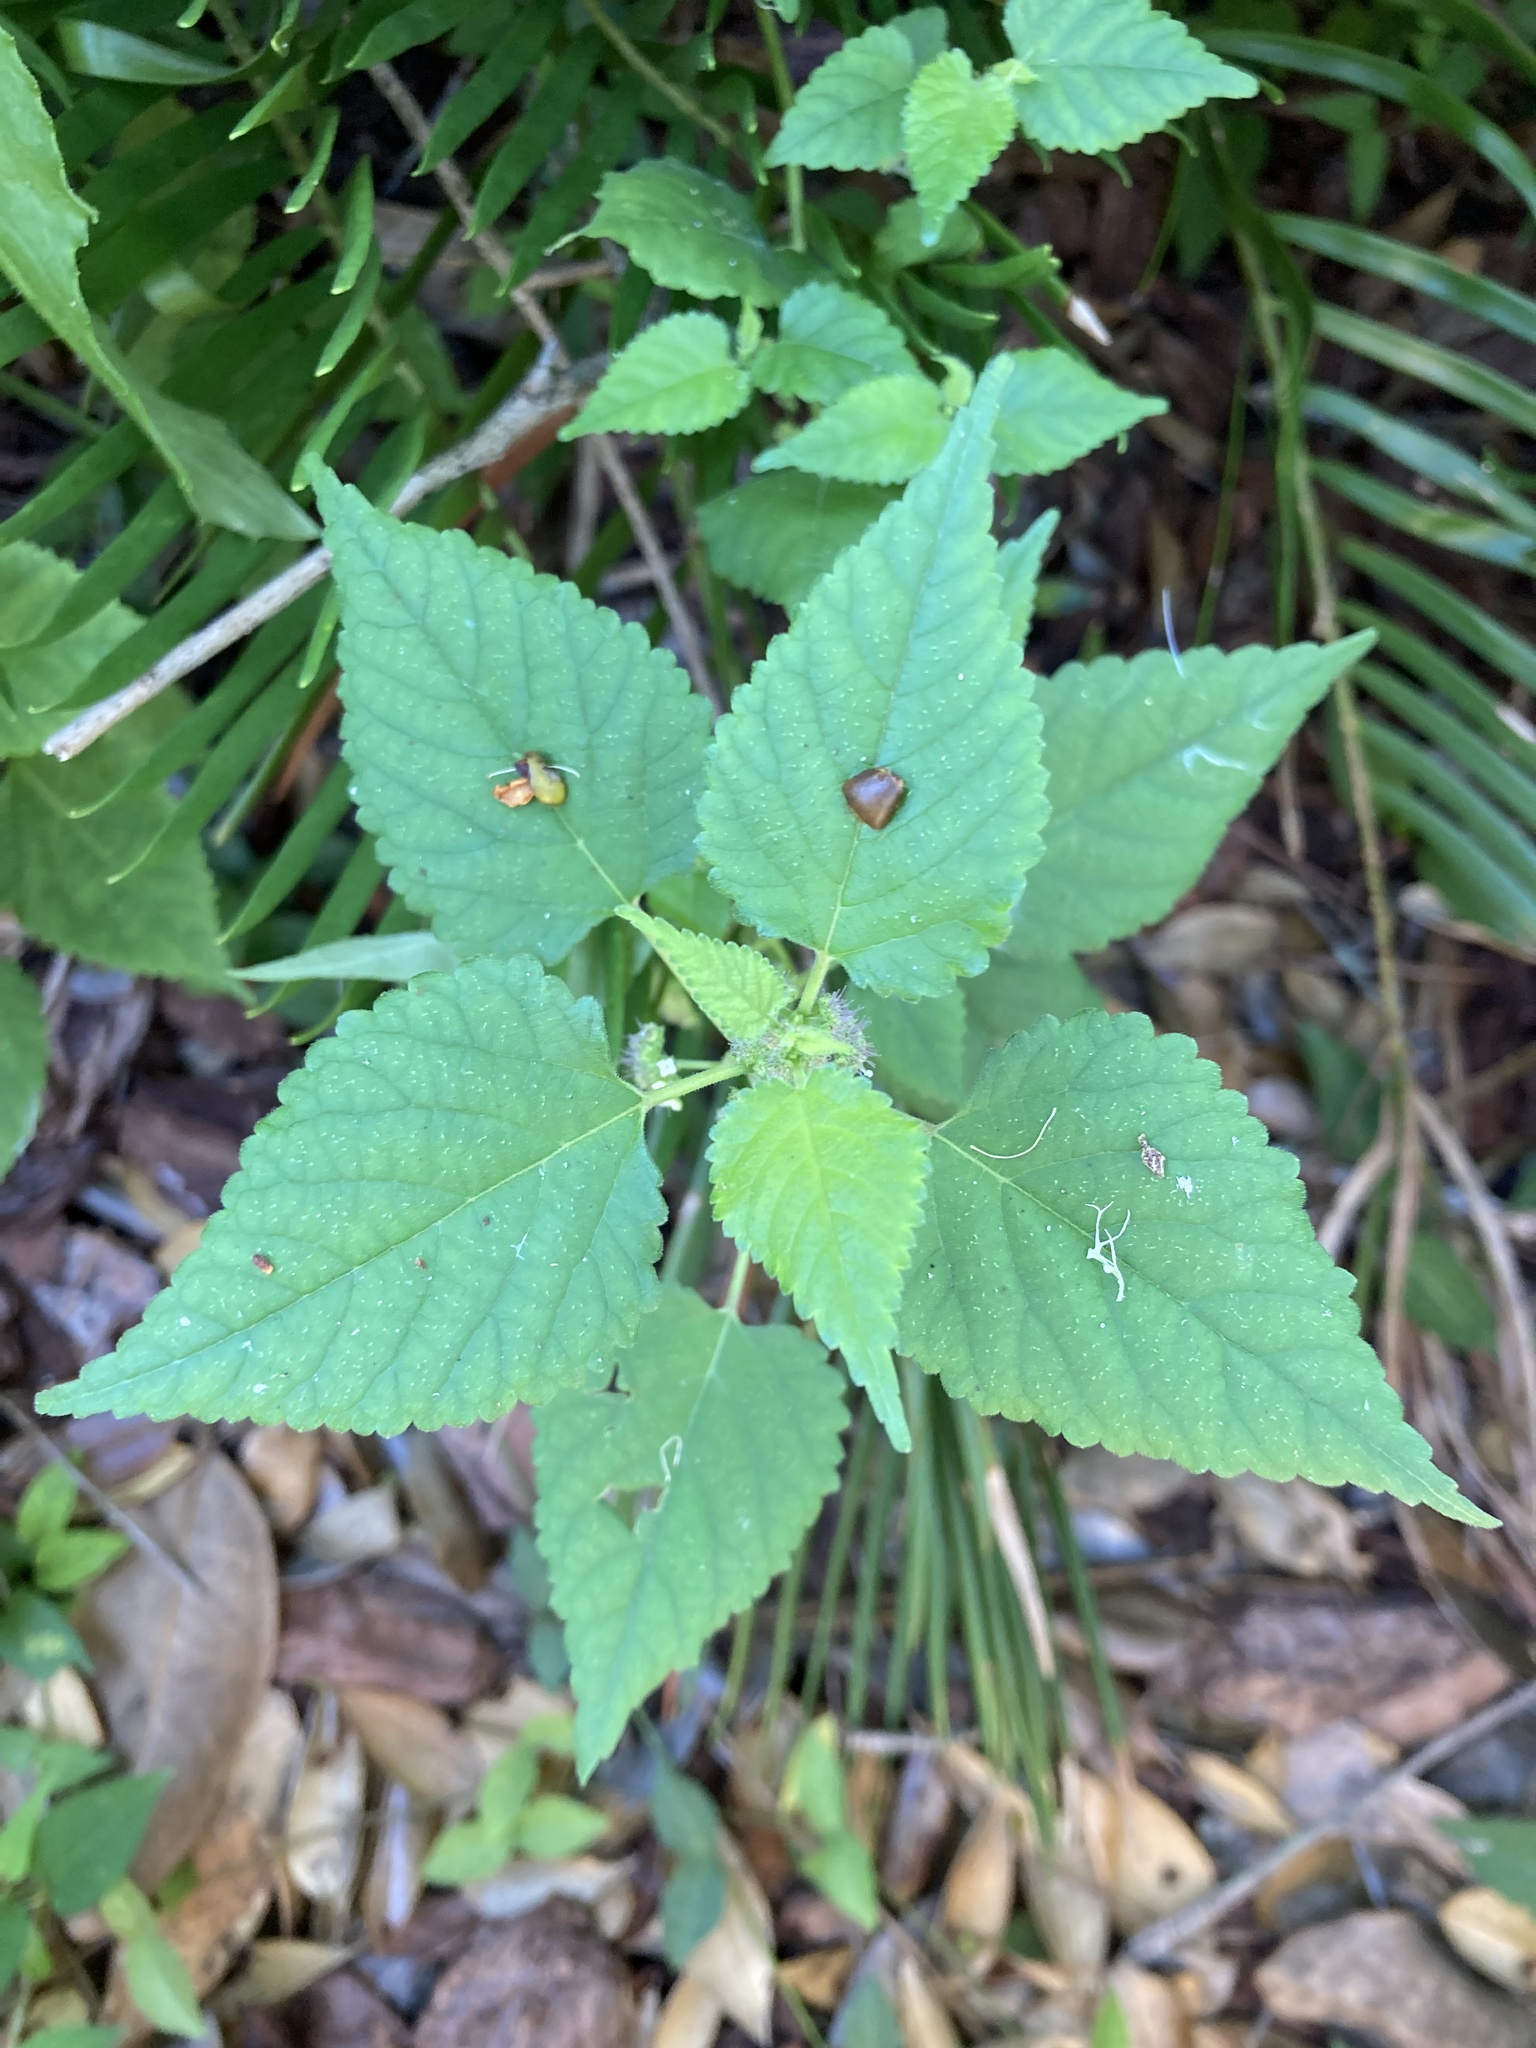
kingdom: Plantae
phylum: Tracheophyta
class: Magnoliopsida
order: Rosales
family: Moraceae
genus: Fatoua
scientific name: Fatoua villosa
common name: Hairy crabweed
